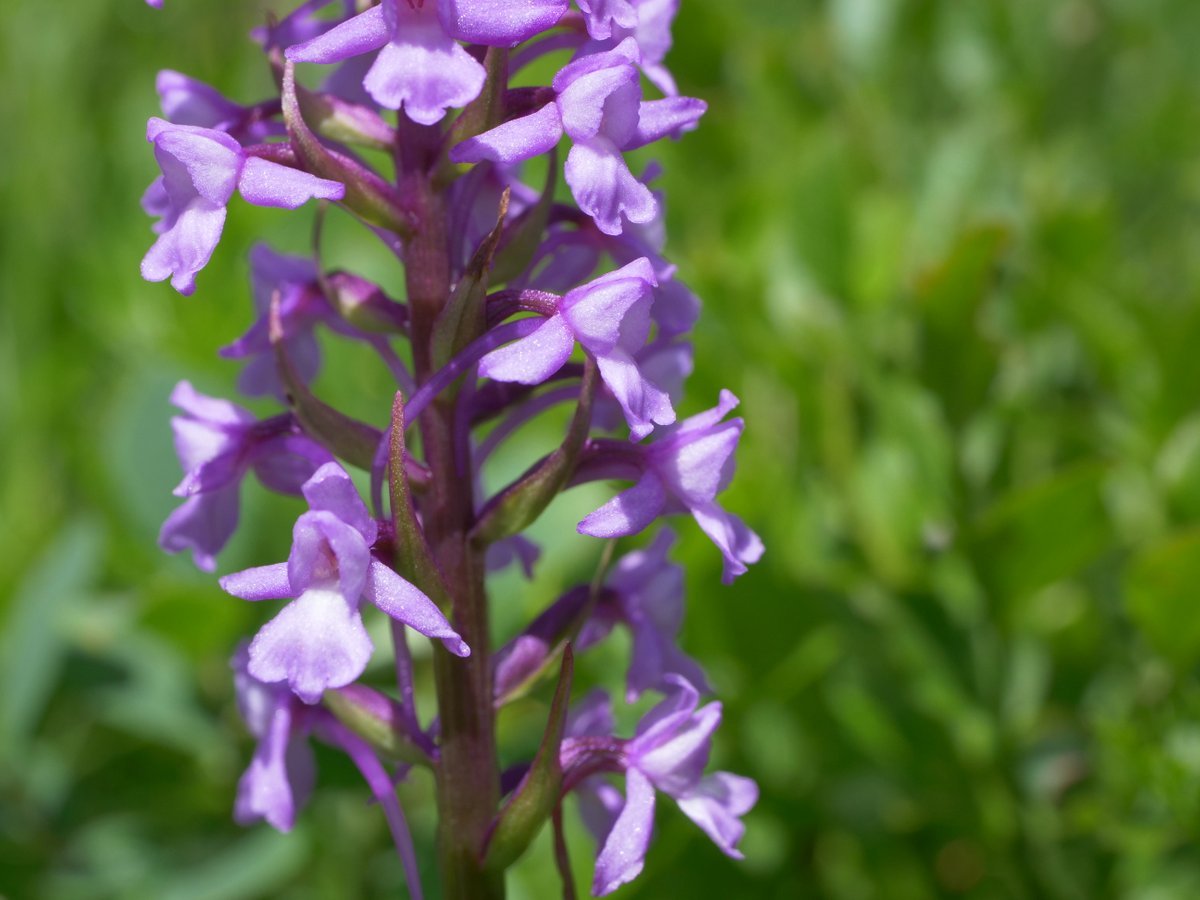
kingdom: Plantae
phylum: Tracheophyta
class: Liliopsida
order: Asparagales
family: Orchidaceae
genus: Gymnadenia
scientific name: Gymnadenia conopsea
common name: Fragrant orchid
